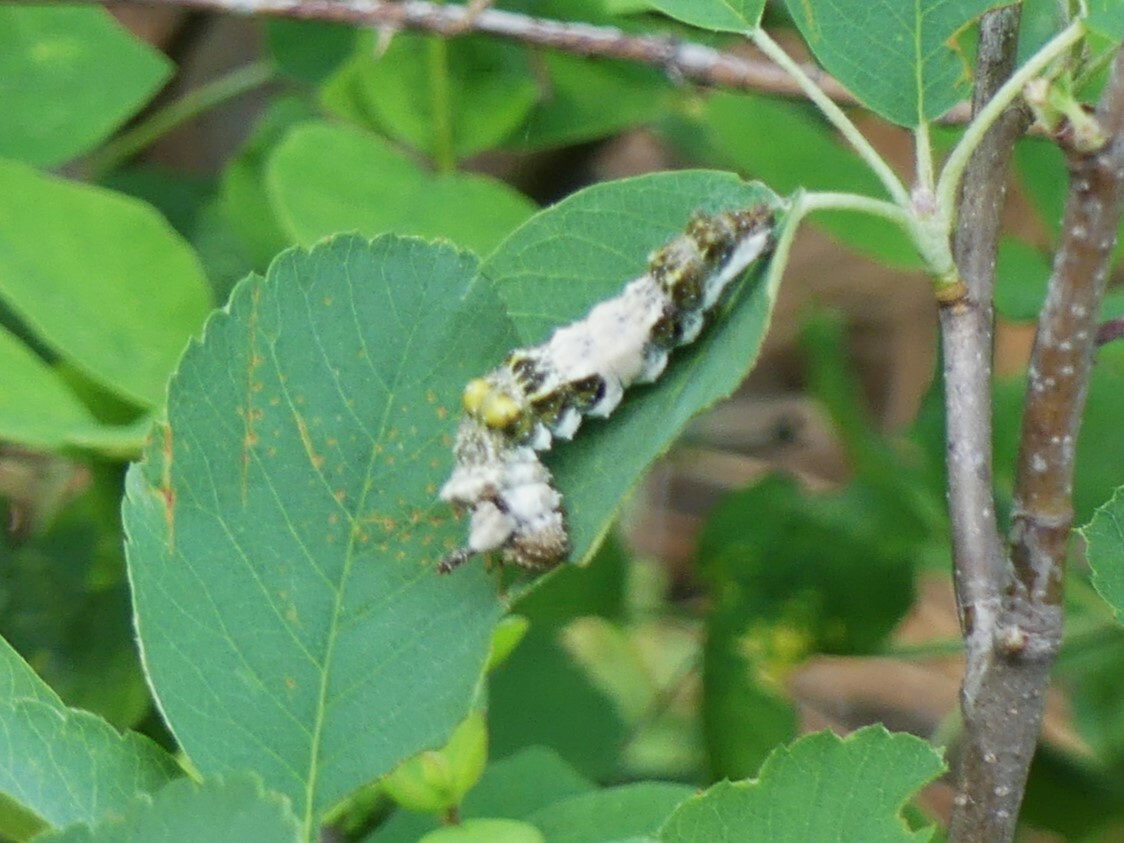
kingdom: Animalia
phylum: Arthropoda
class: Insecta
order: Lepidoptera
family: Nymphalidae
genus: Limenitis
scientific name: Limenitis lorquini
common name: Lorquin's admiral
